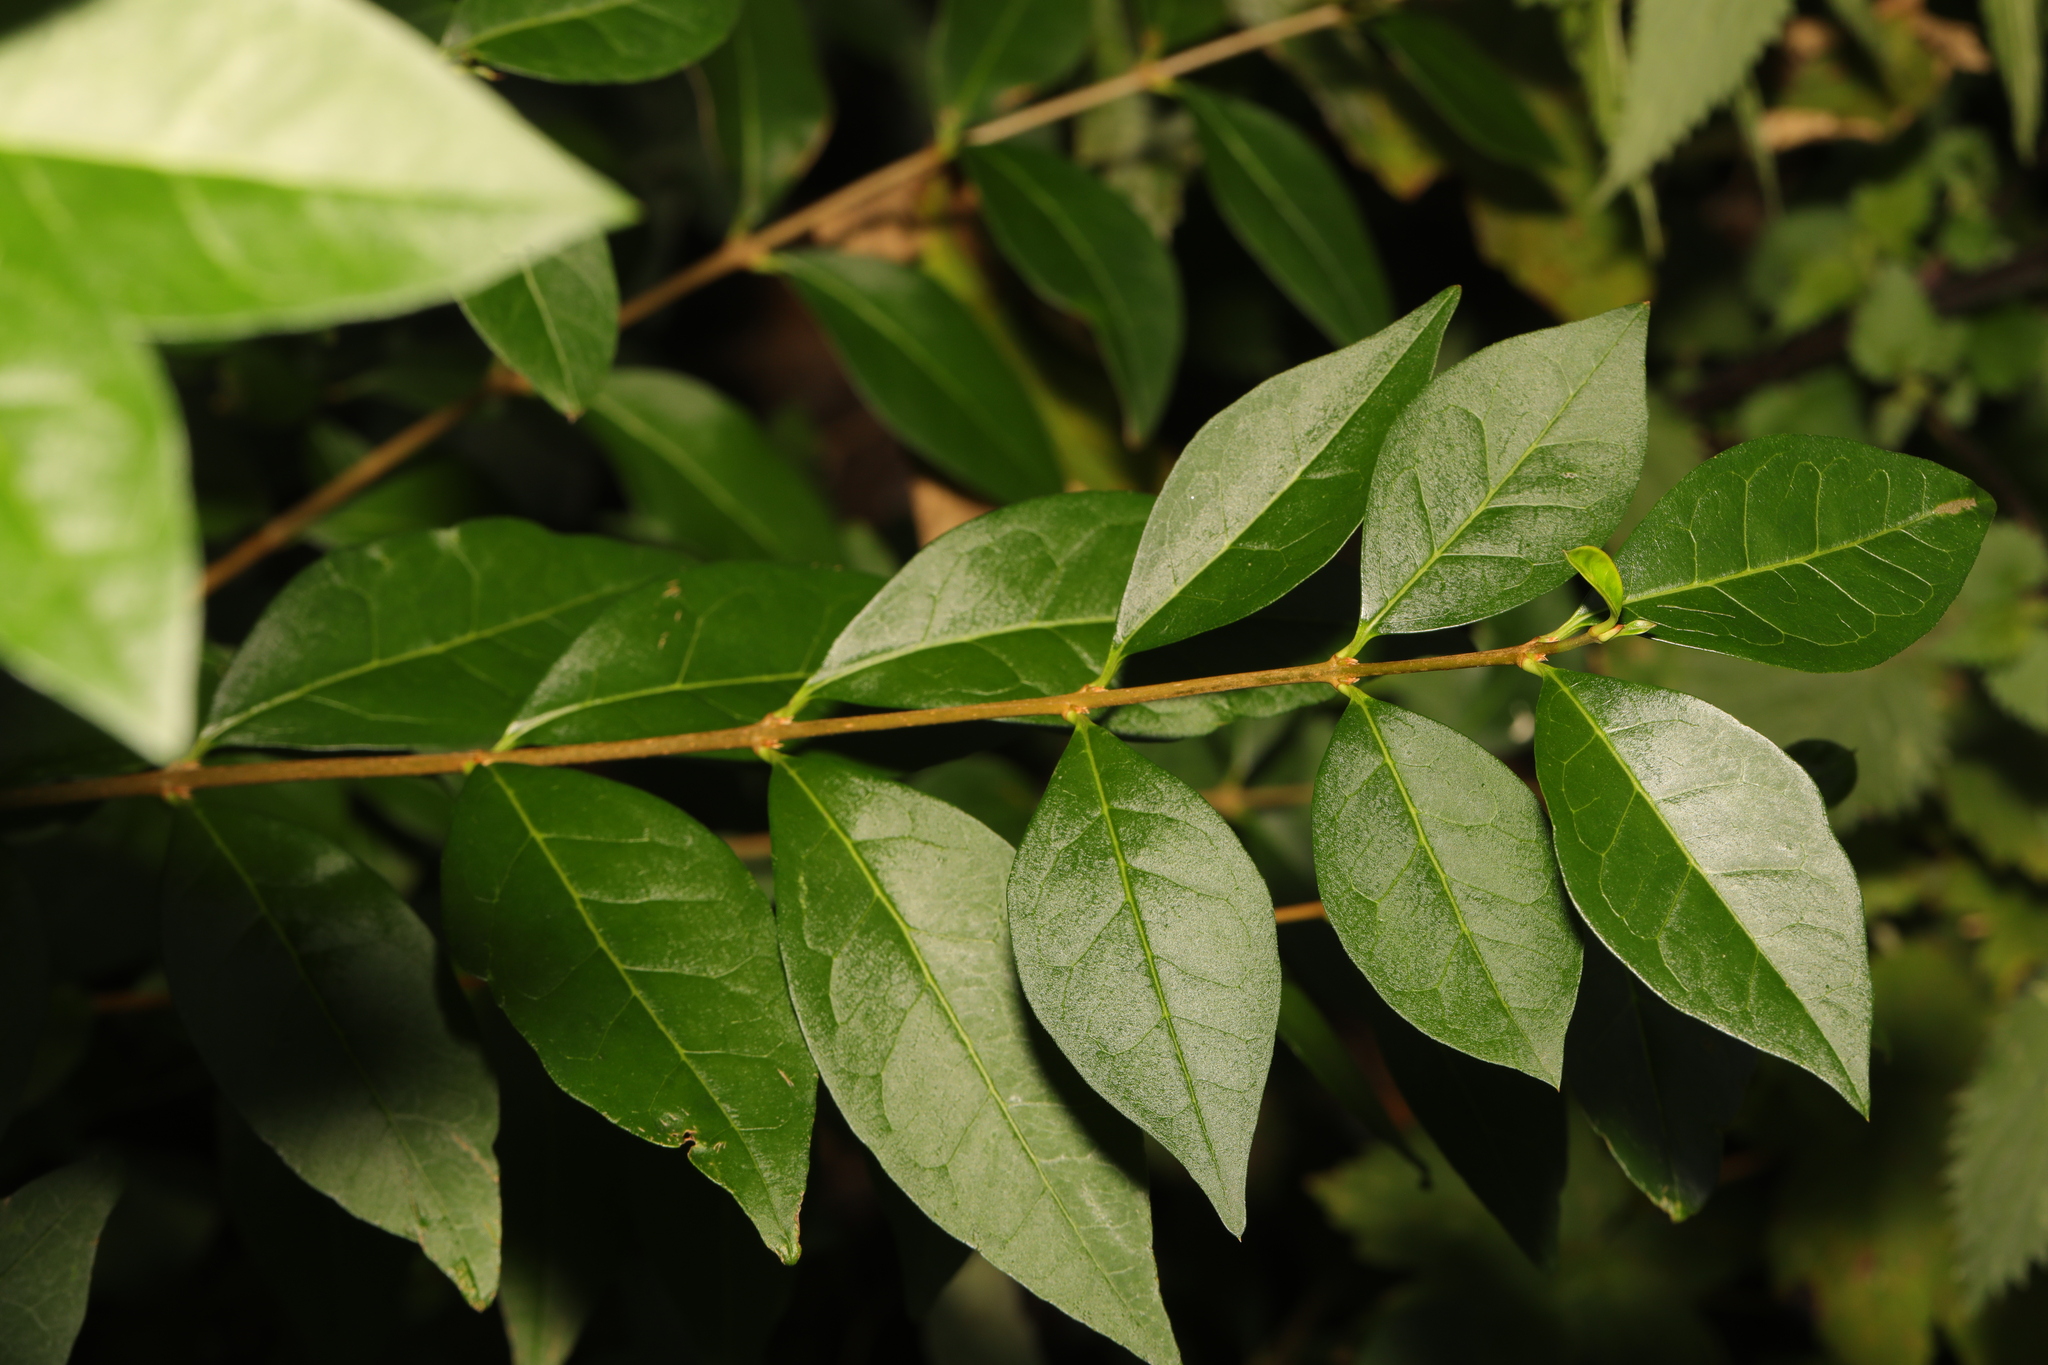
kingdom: Plantae
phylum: Tracheophyta
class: Magnoliopsida
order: Lamiales
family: Oleaceae
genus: Ligustrum
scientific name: Ligustrum ovalifolium
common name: California privet
